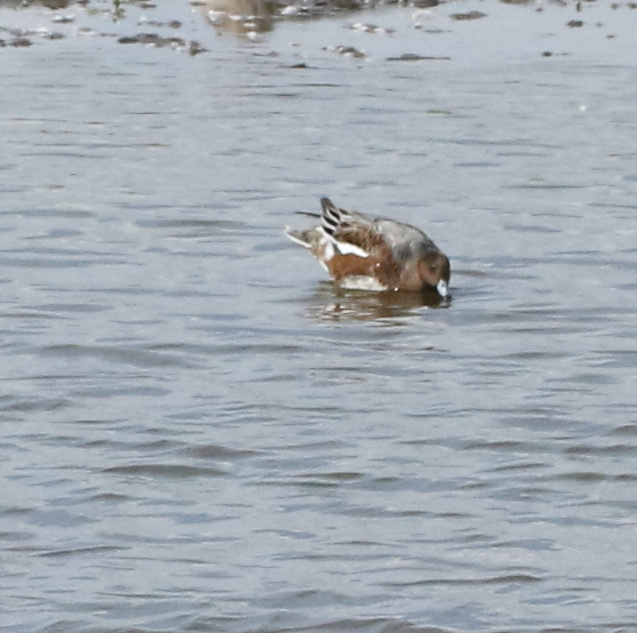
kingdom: Animalia
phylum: Chordata
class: Aves
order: Anseriformes
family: Anatidae
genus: Mareca
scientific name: Mareca penelope
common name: Eurasian wigeon
